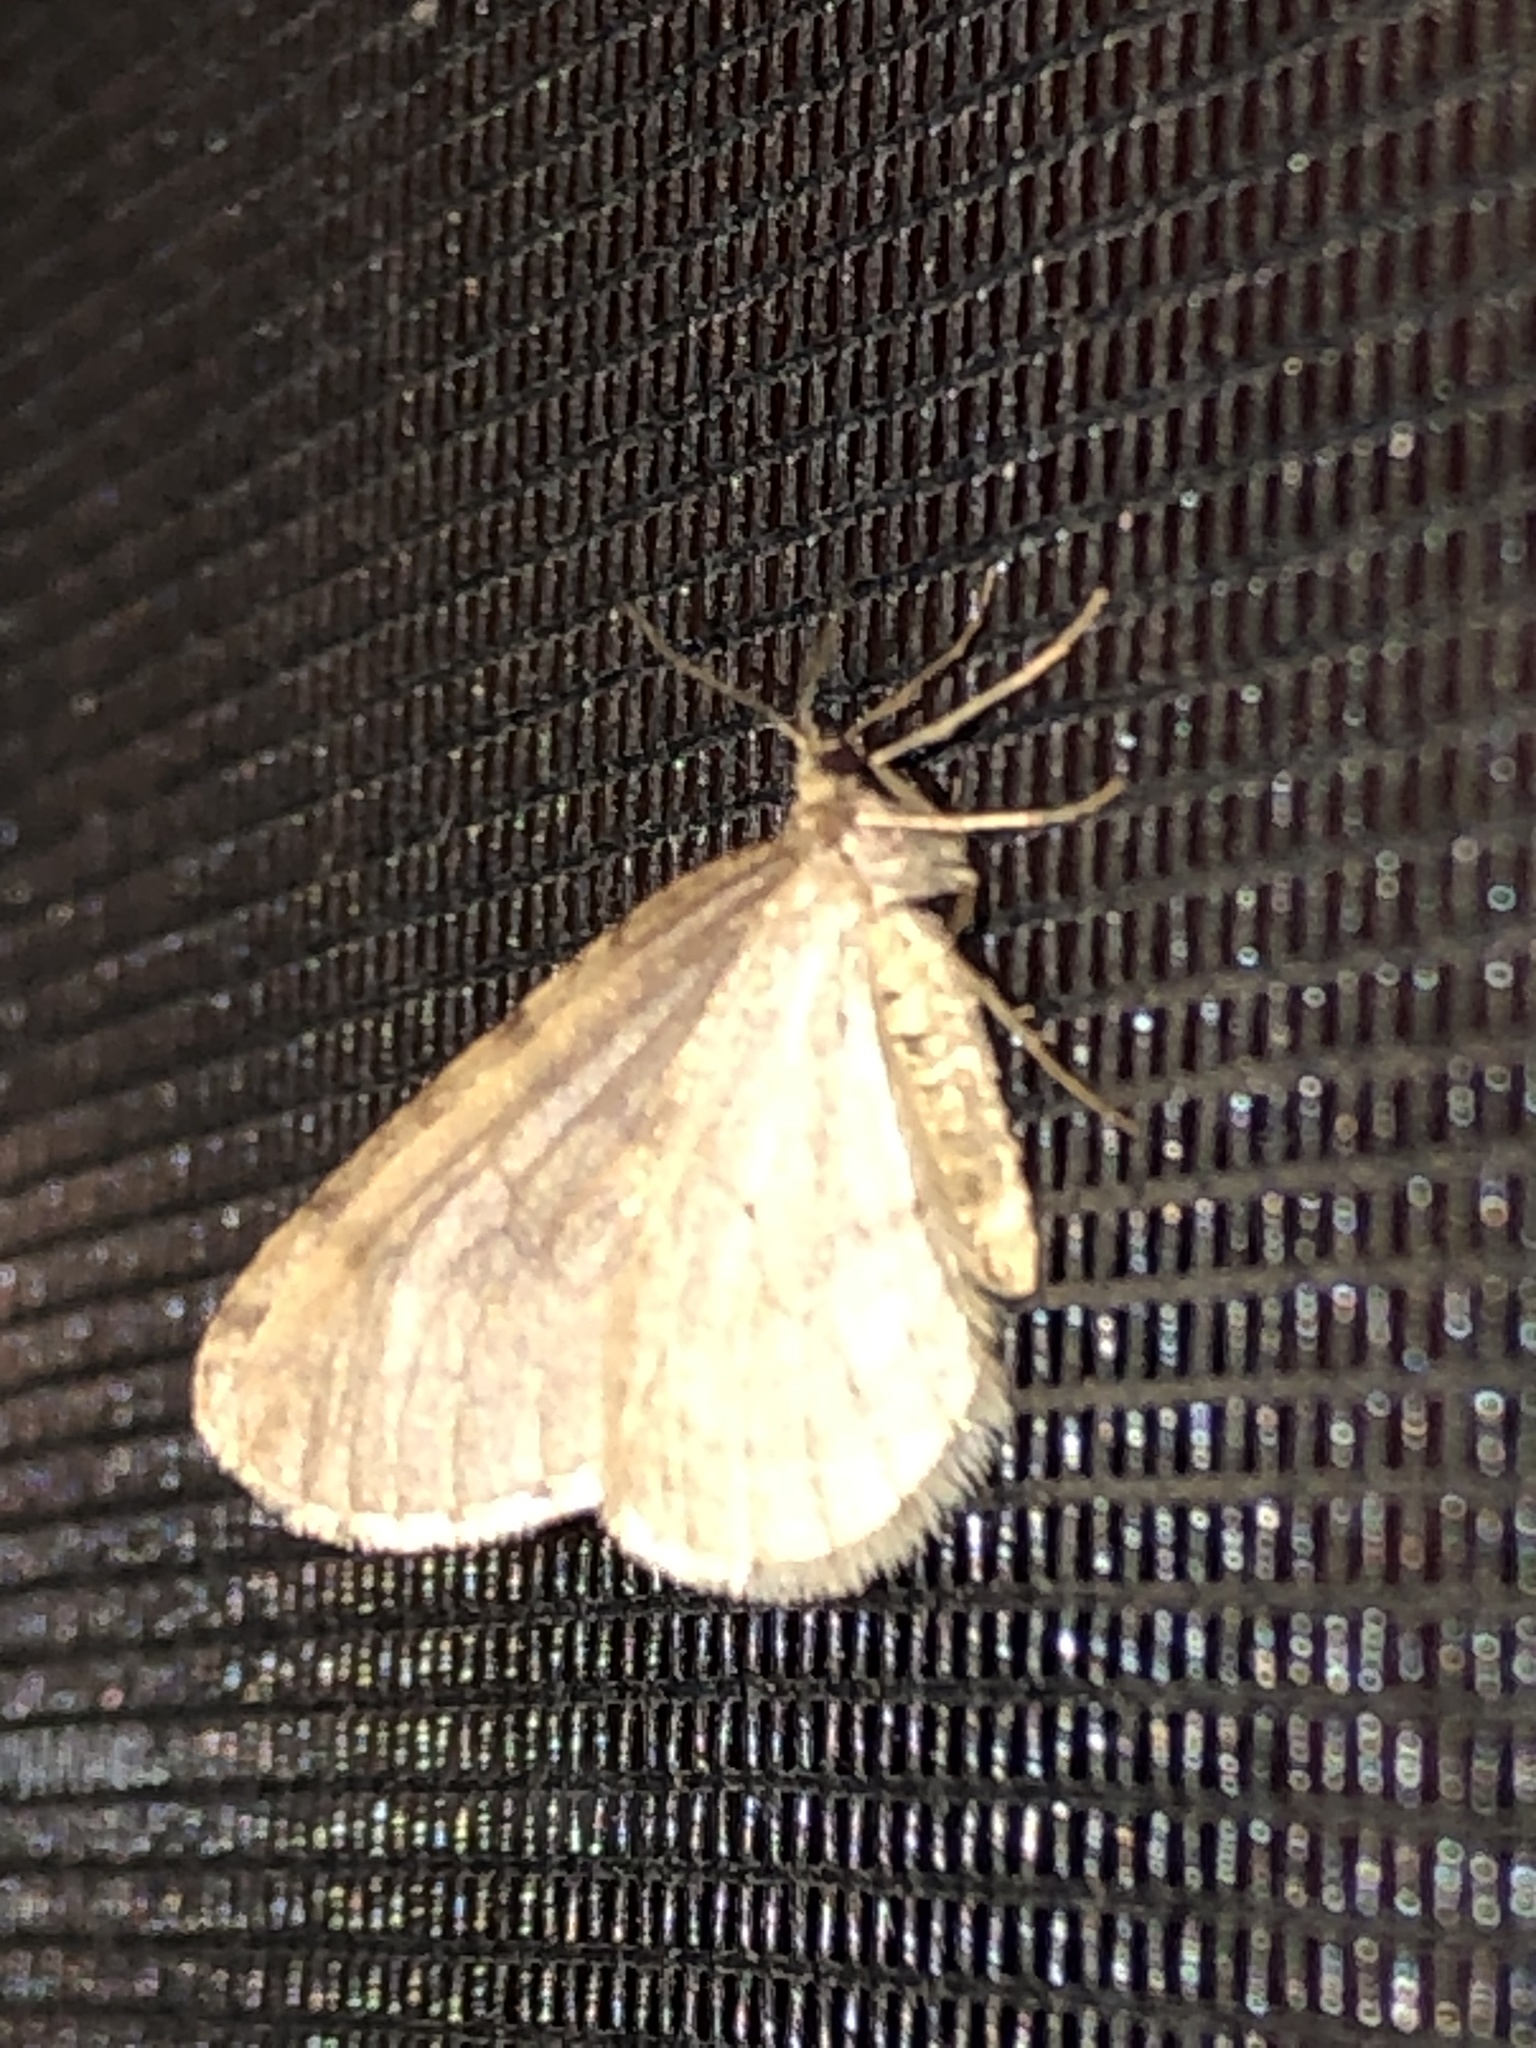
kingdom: Animalia
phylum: Arthropoda
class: Insecta
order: Lepidoptera
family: Geometridae
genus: Operophtera
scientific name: Operophtera bruceata
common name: Bruce spanworm
